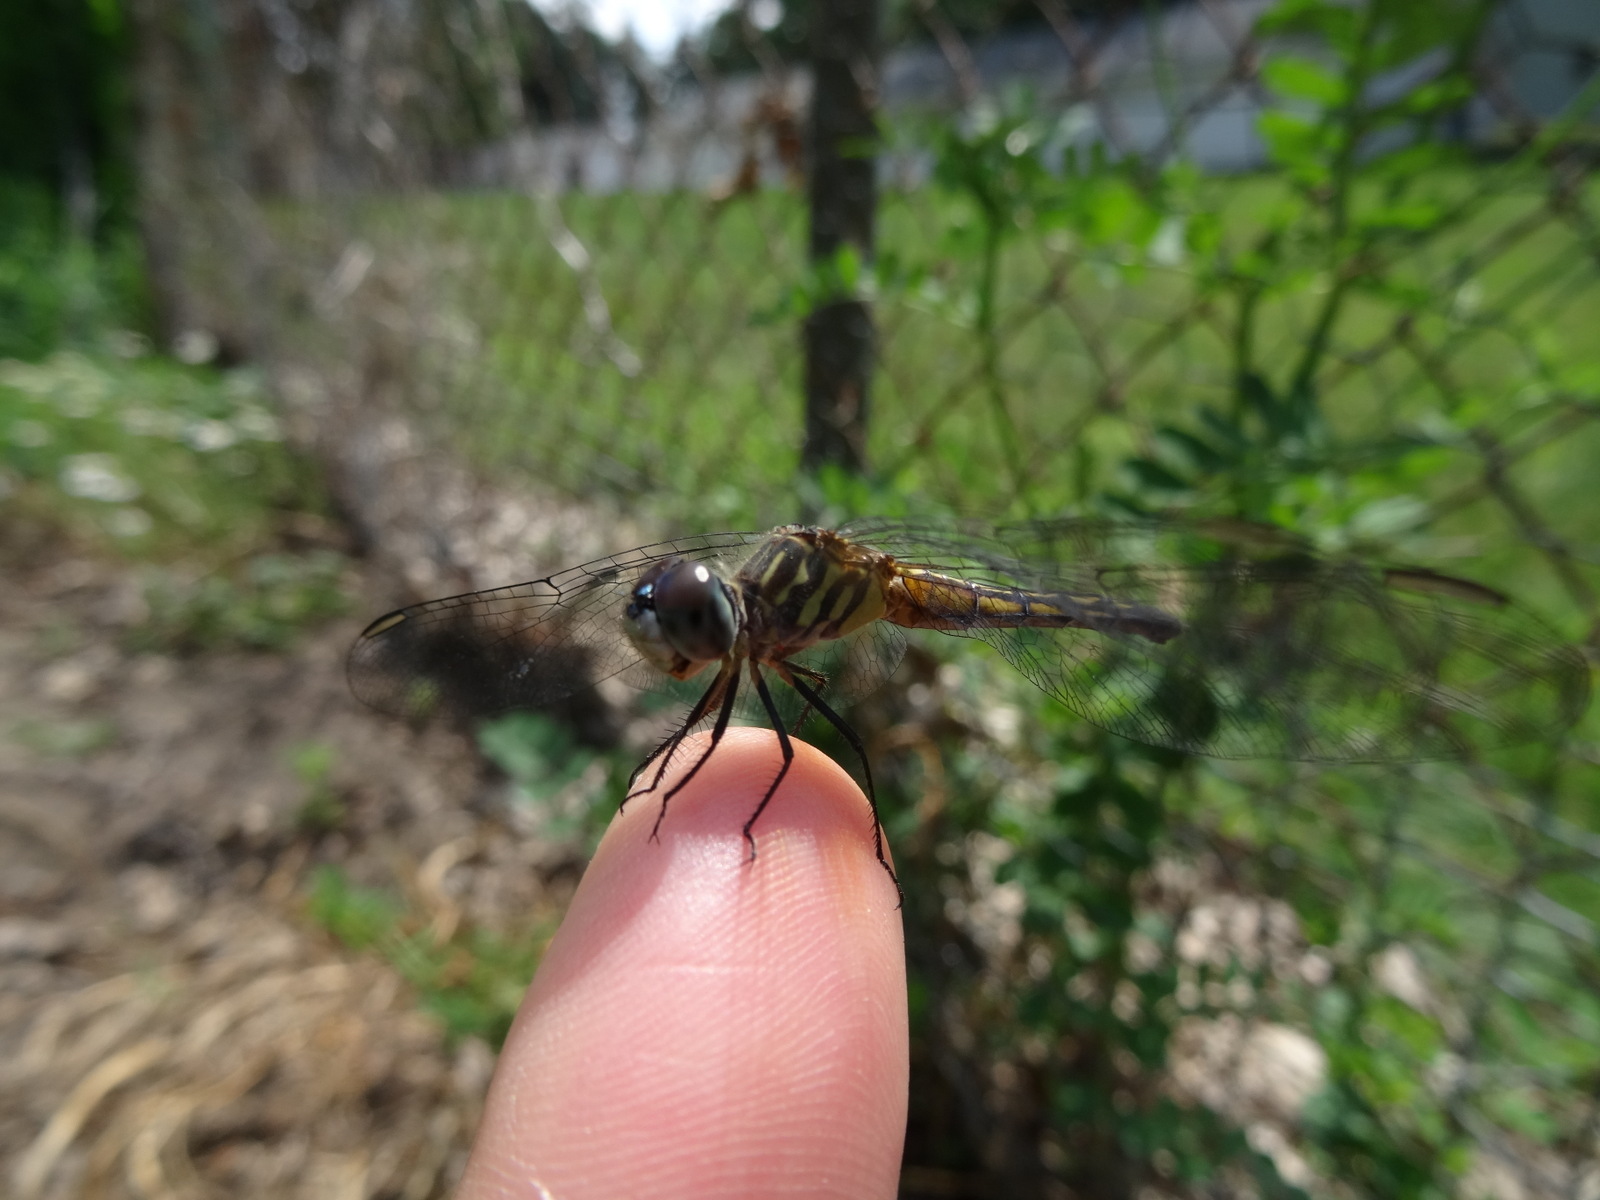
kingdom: Animalia
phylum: Arthropoda
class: Insecta
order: Odonata
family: Libellulidae
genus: Pachydiplax
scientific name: Pachydiplax longipennis
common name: Blue dasher
